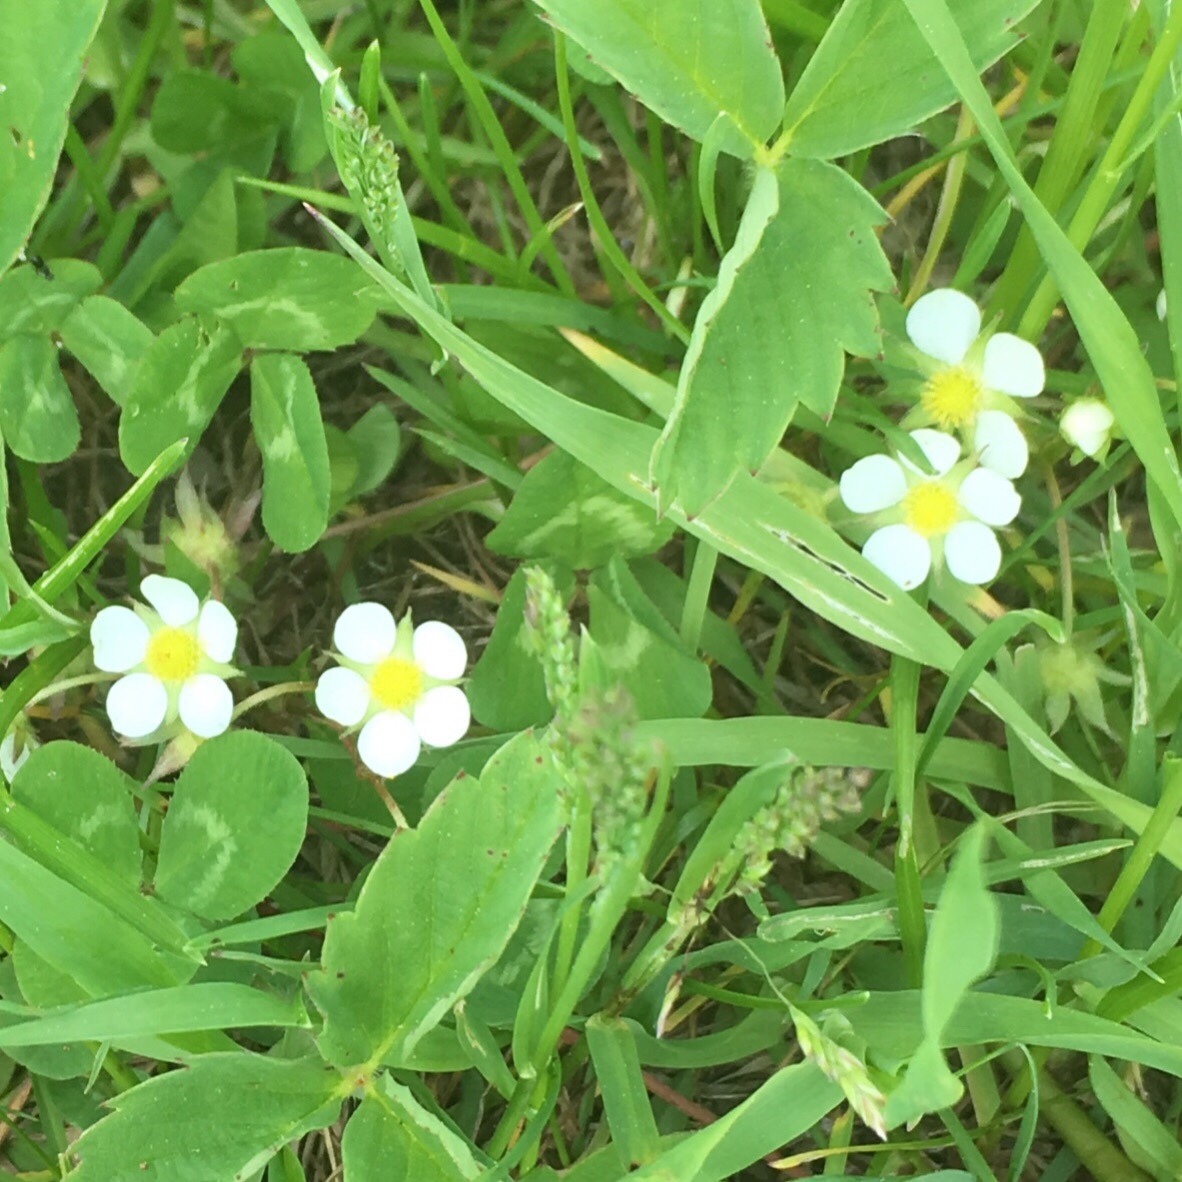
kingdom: Plantae
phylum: Tracheophyta
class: Magnoliopsida
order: Rosales
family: Rosaceae
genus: Fragaria
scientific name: Fragaria vesca
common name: Wild strawberry
